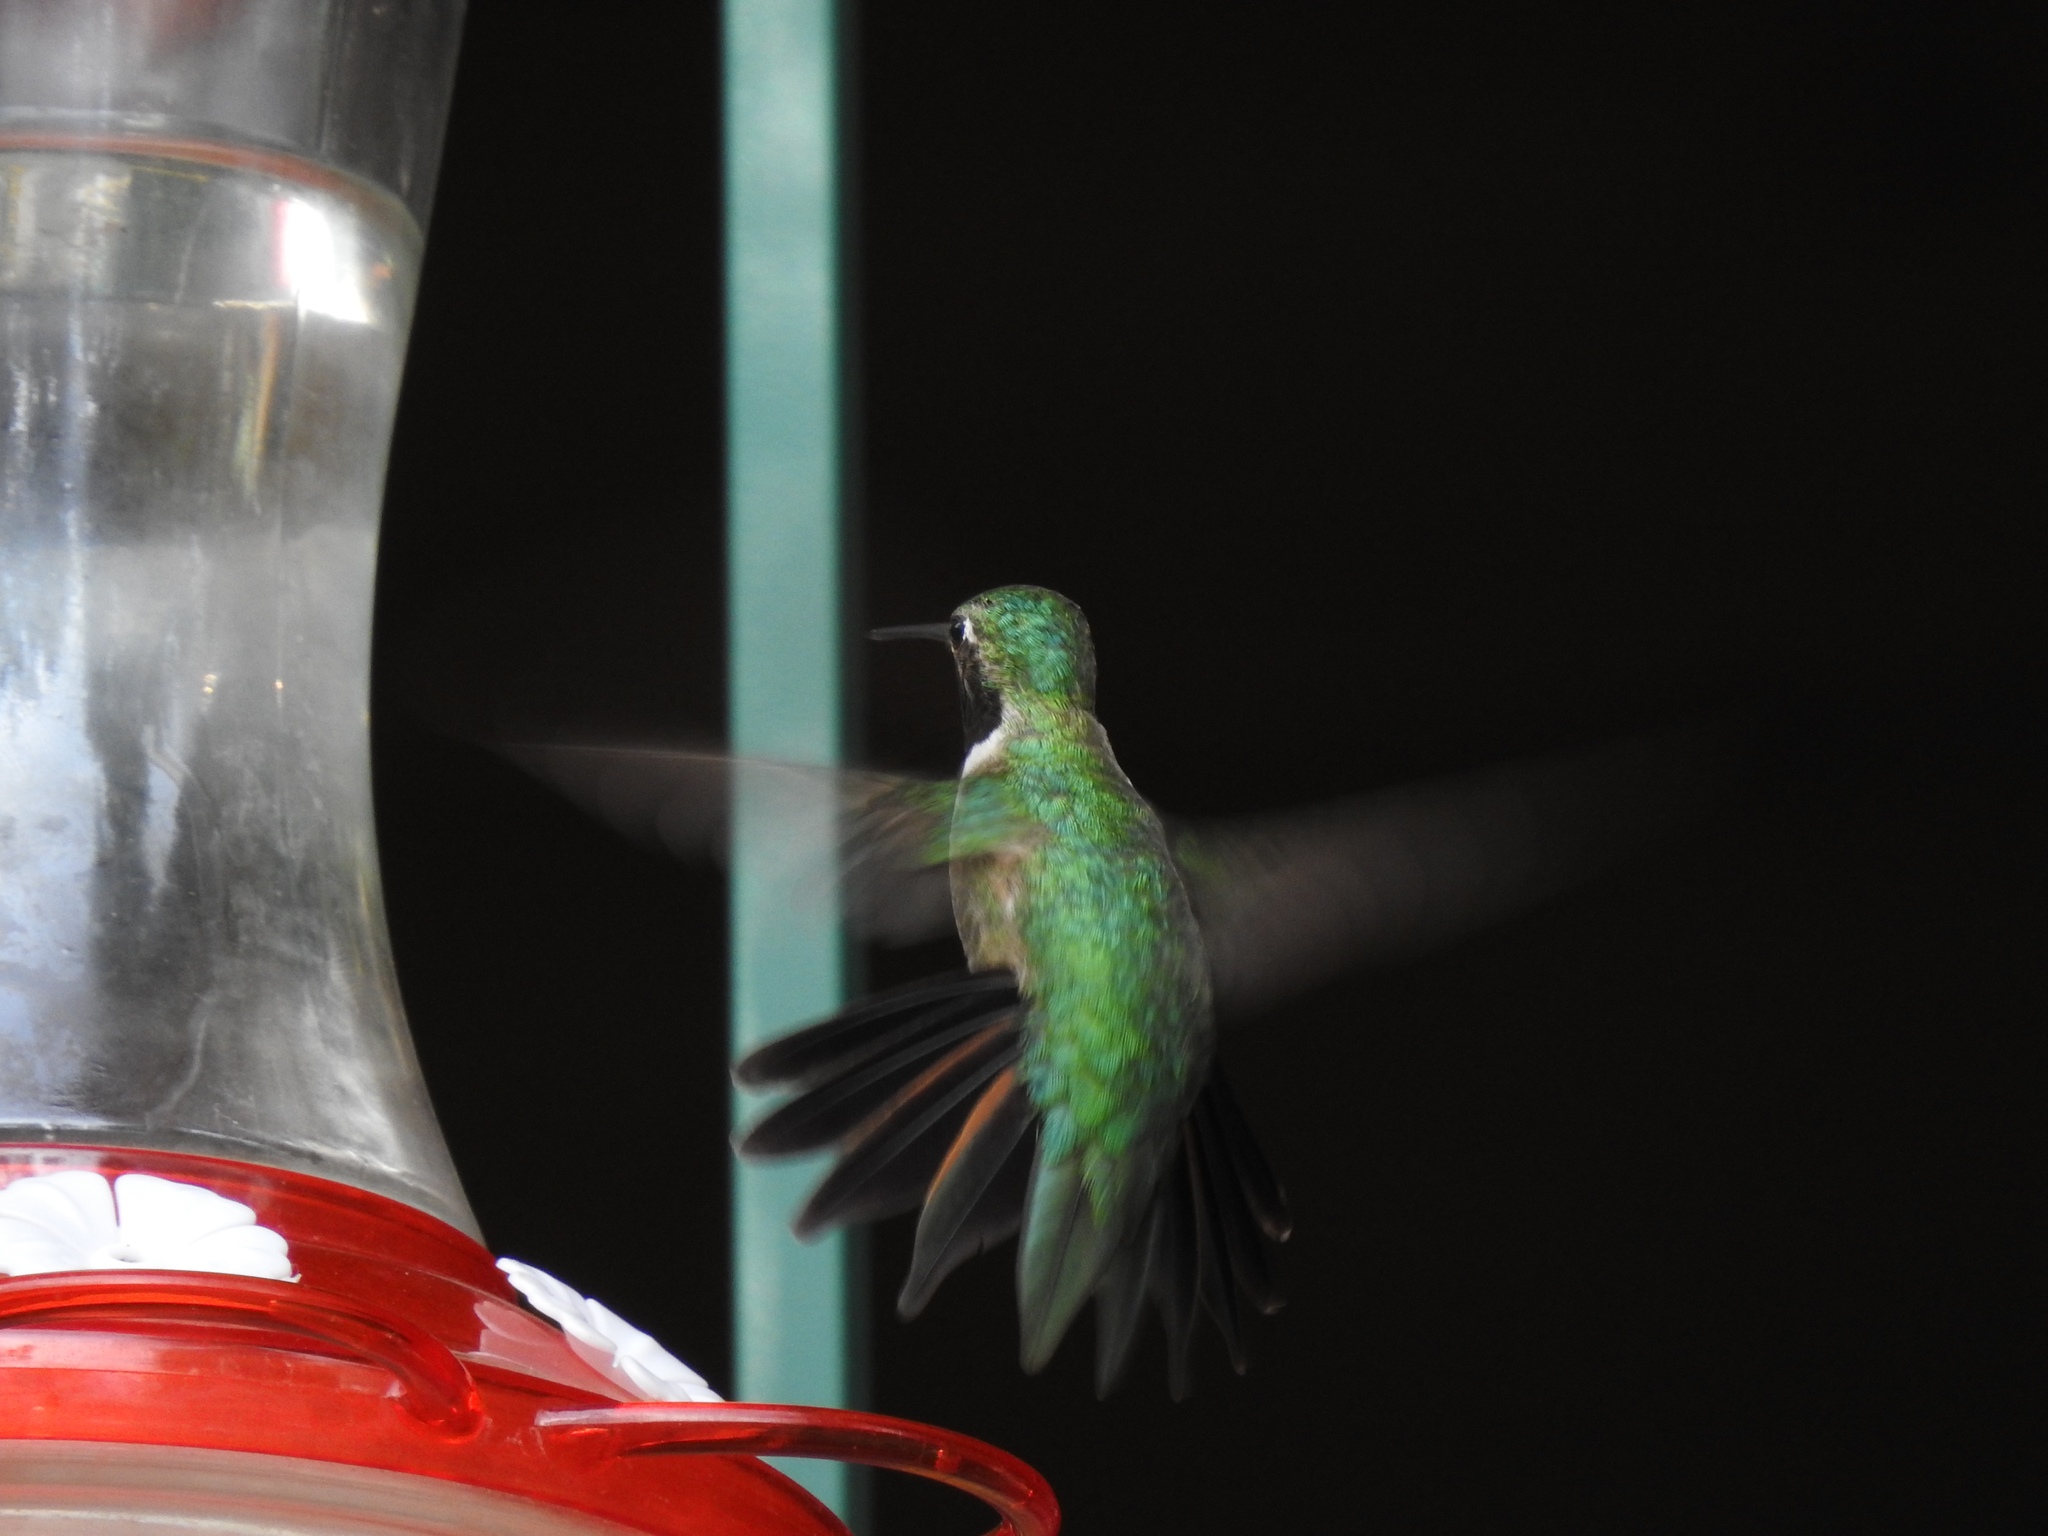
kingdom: Animalia
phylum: Chordata
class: Aves
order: Apodiformes
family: Trochilidae
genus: Selasphorus
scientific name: Selasphorus platycercus
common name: Broad-tailed hummingbird
